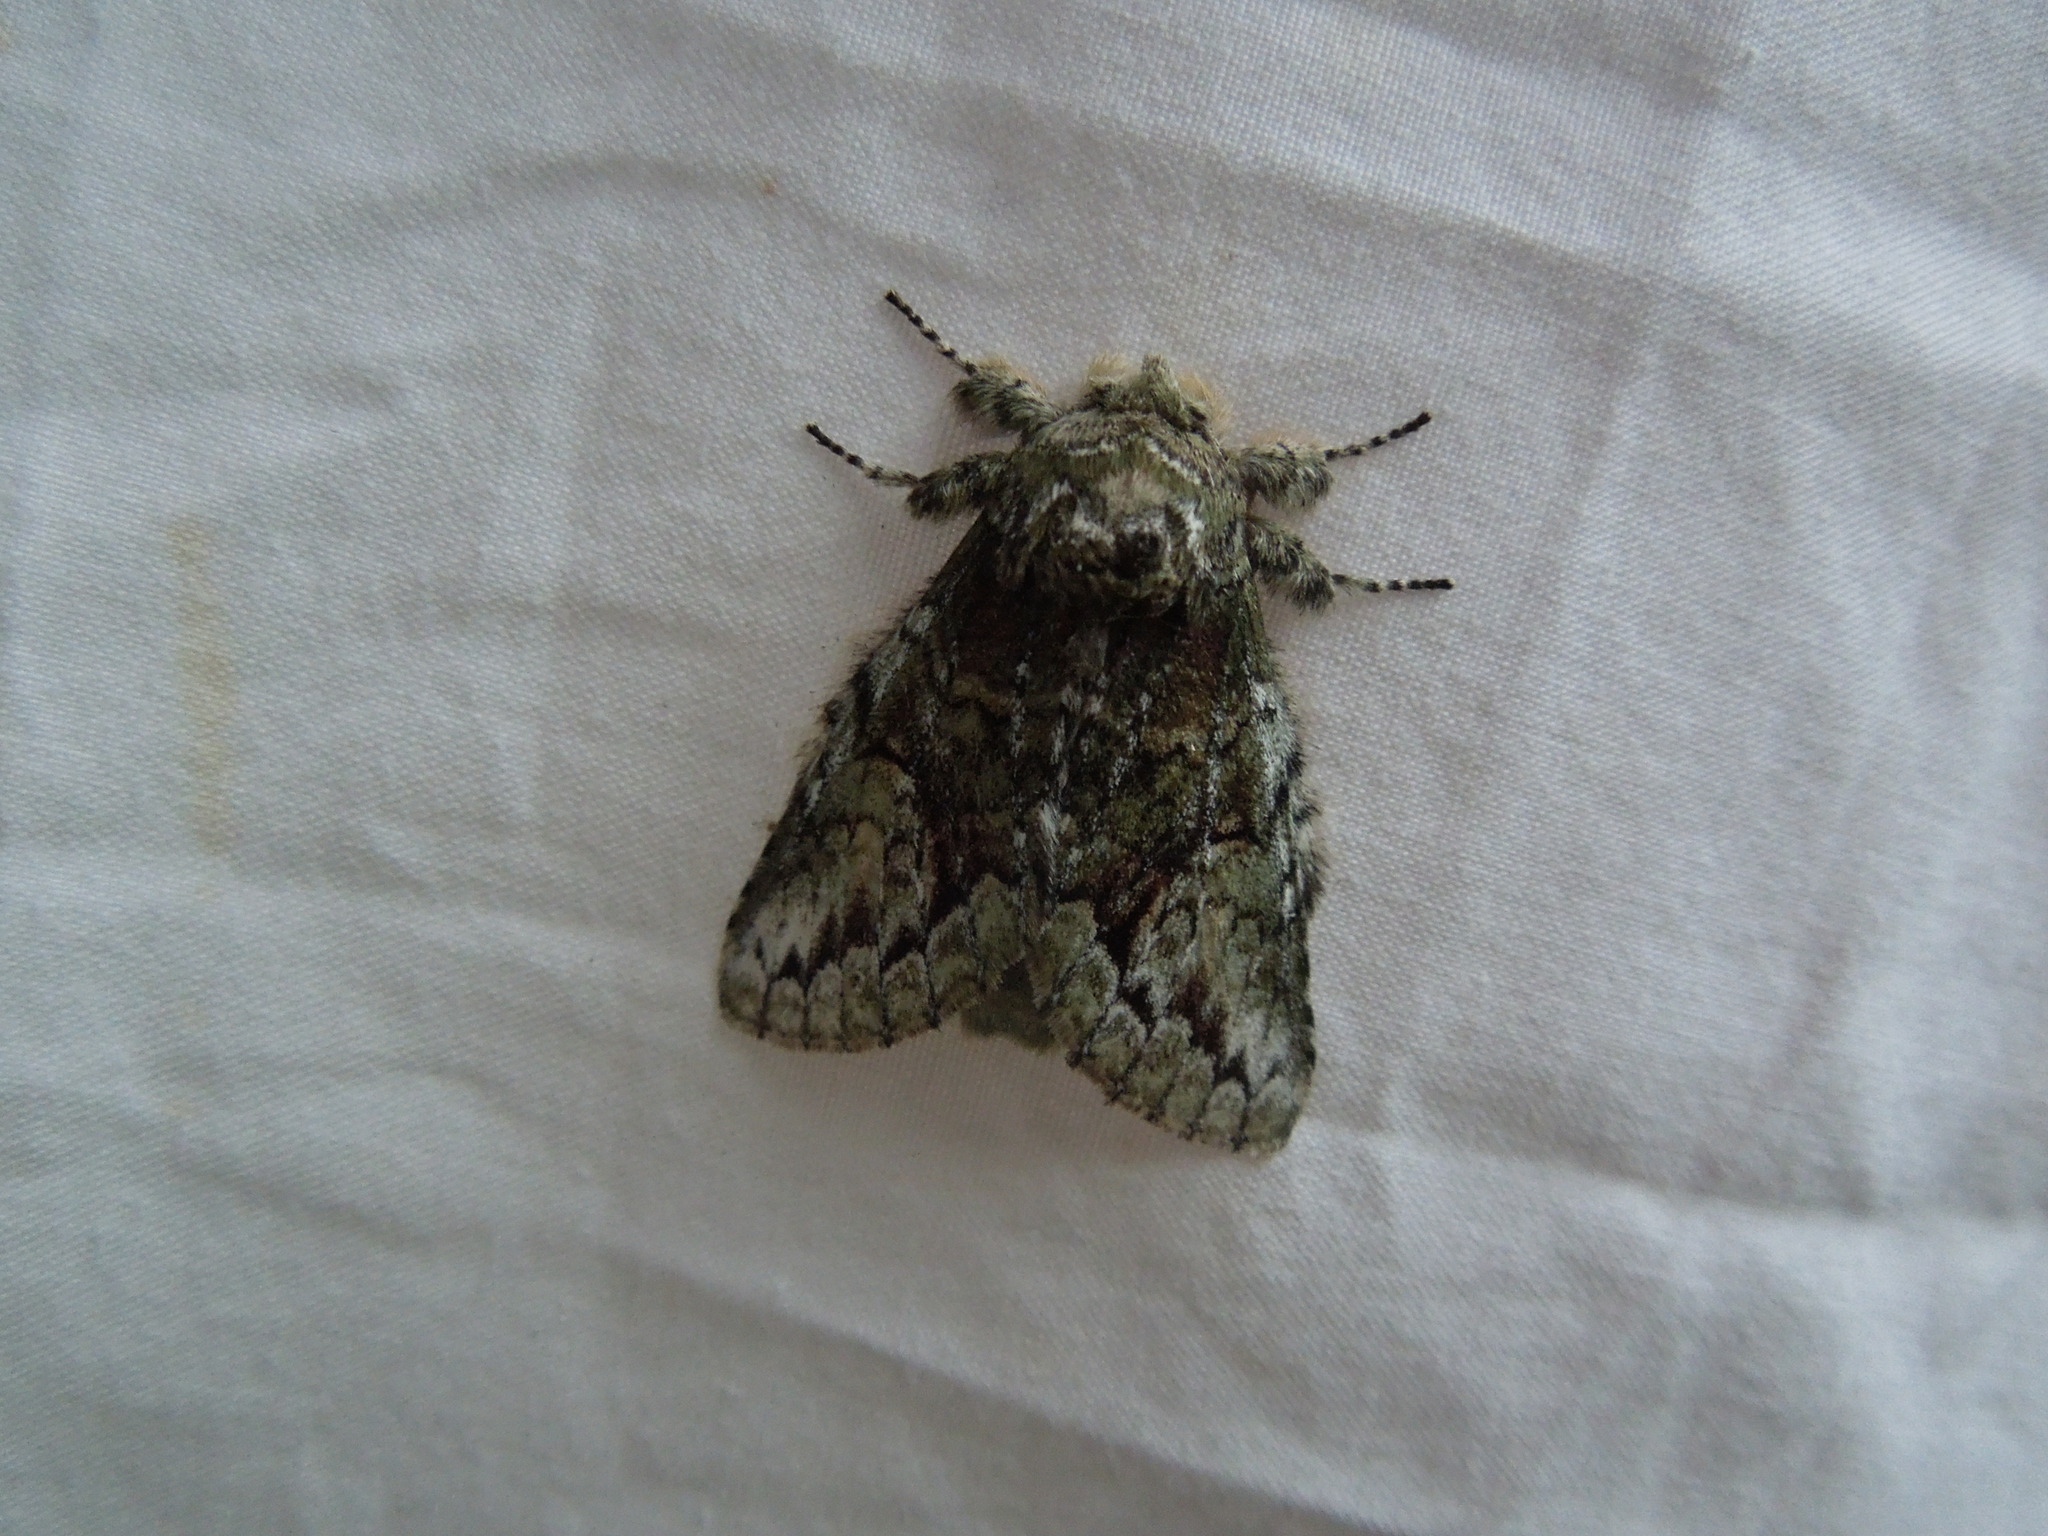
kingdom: Animalia
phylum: Arthropoda
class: Insecta
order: Lepidoptera
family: Notodontidae
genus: Heterocampa
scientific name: Heterocampa
